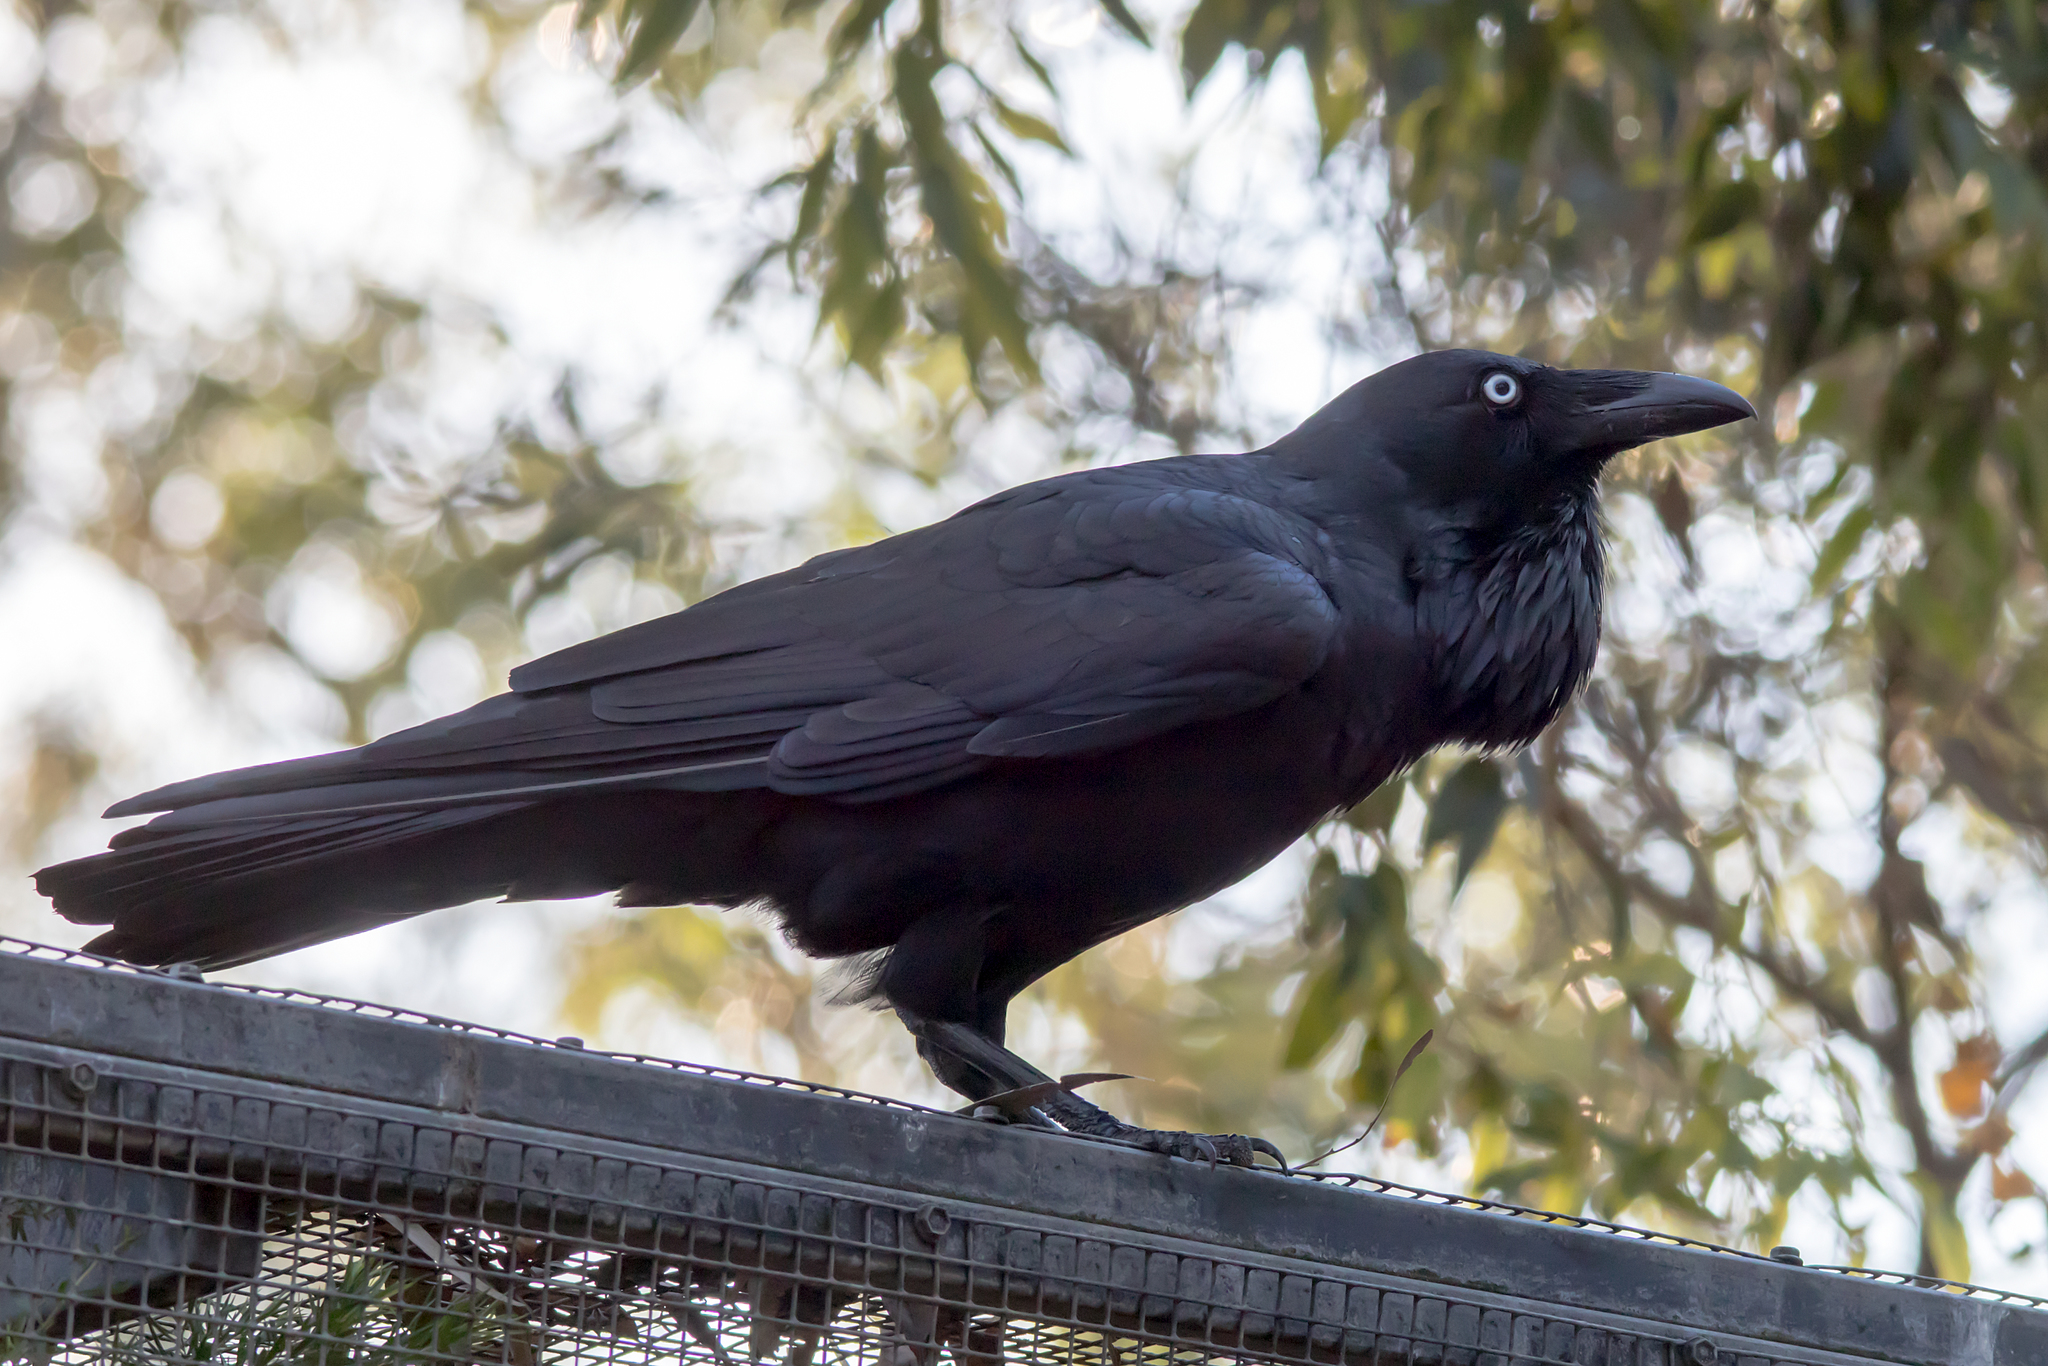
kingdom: Animalia
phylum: Chordata
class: Aves
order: Passeriformes
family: Corvidae
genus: Corvus
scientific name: Corvus coronoides
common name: Australian raven
